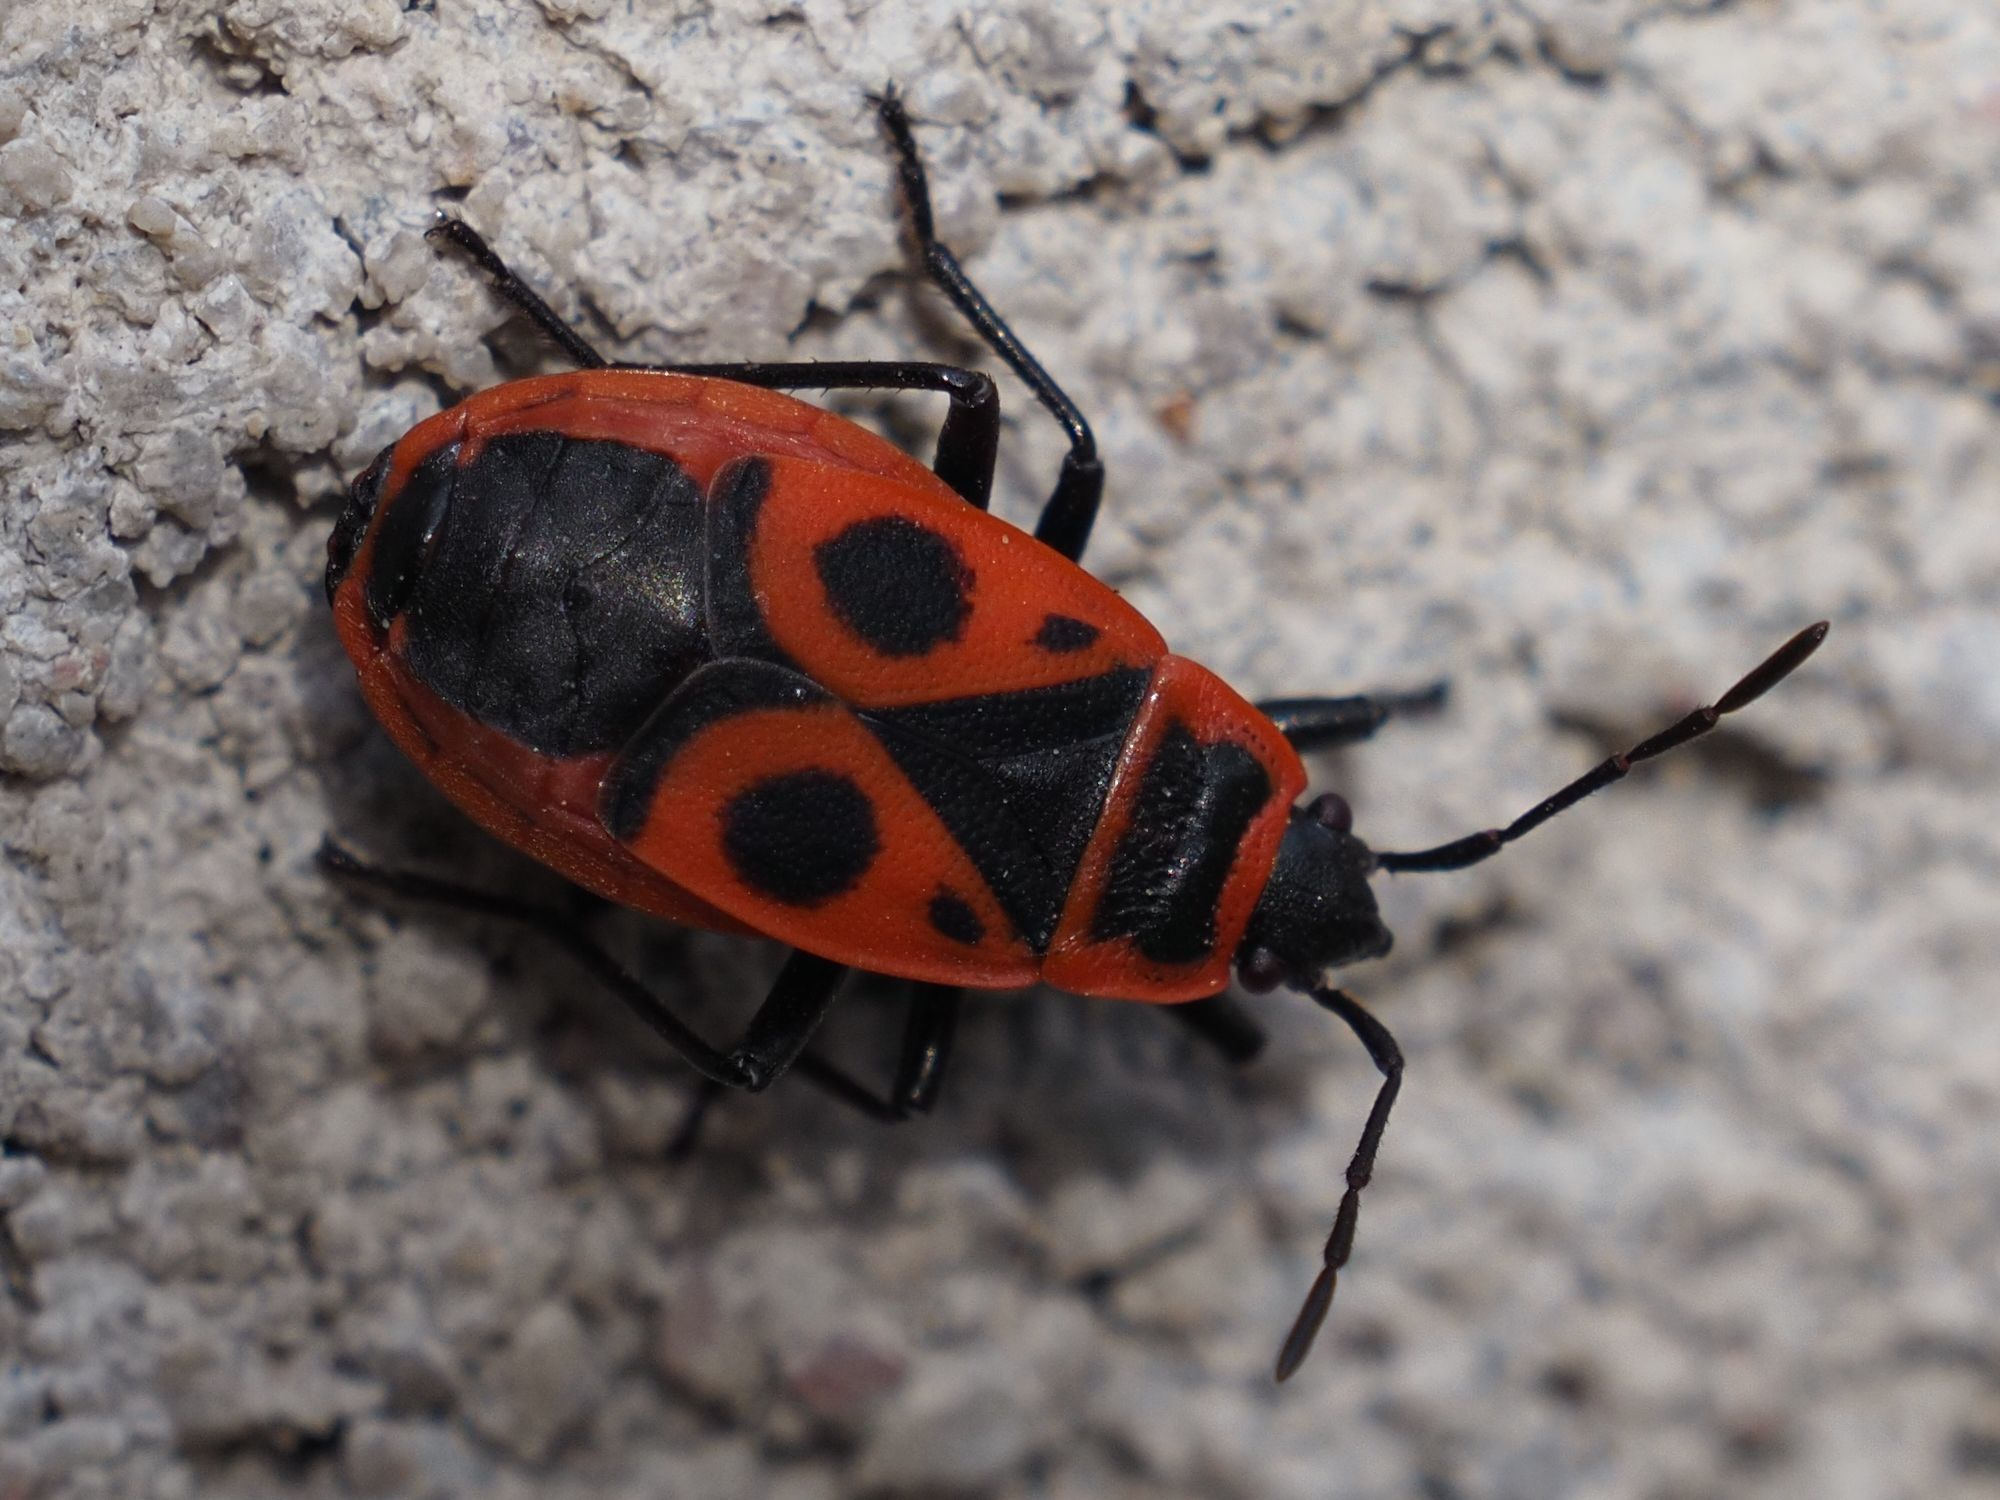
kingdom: Animalia
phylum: Arthropoda
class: Insecta
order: Hemiptera
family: Pyrrhocoridae
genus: Pyrrhocoris
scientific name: Pyrrhocoris apterus
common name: Firebug
